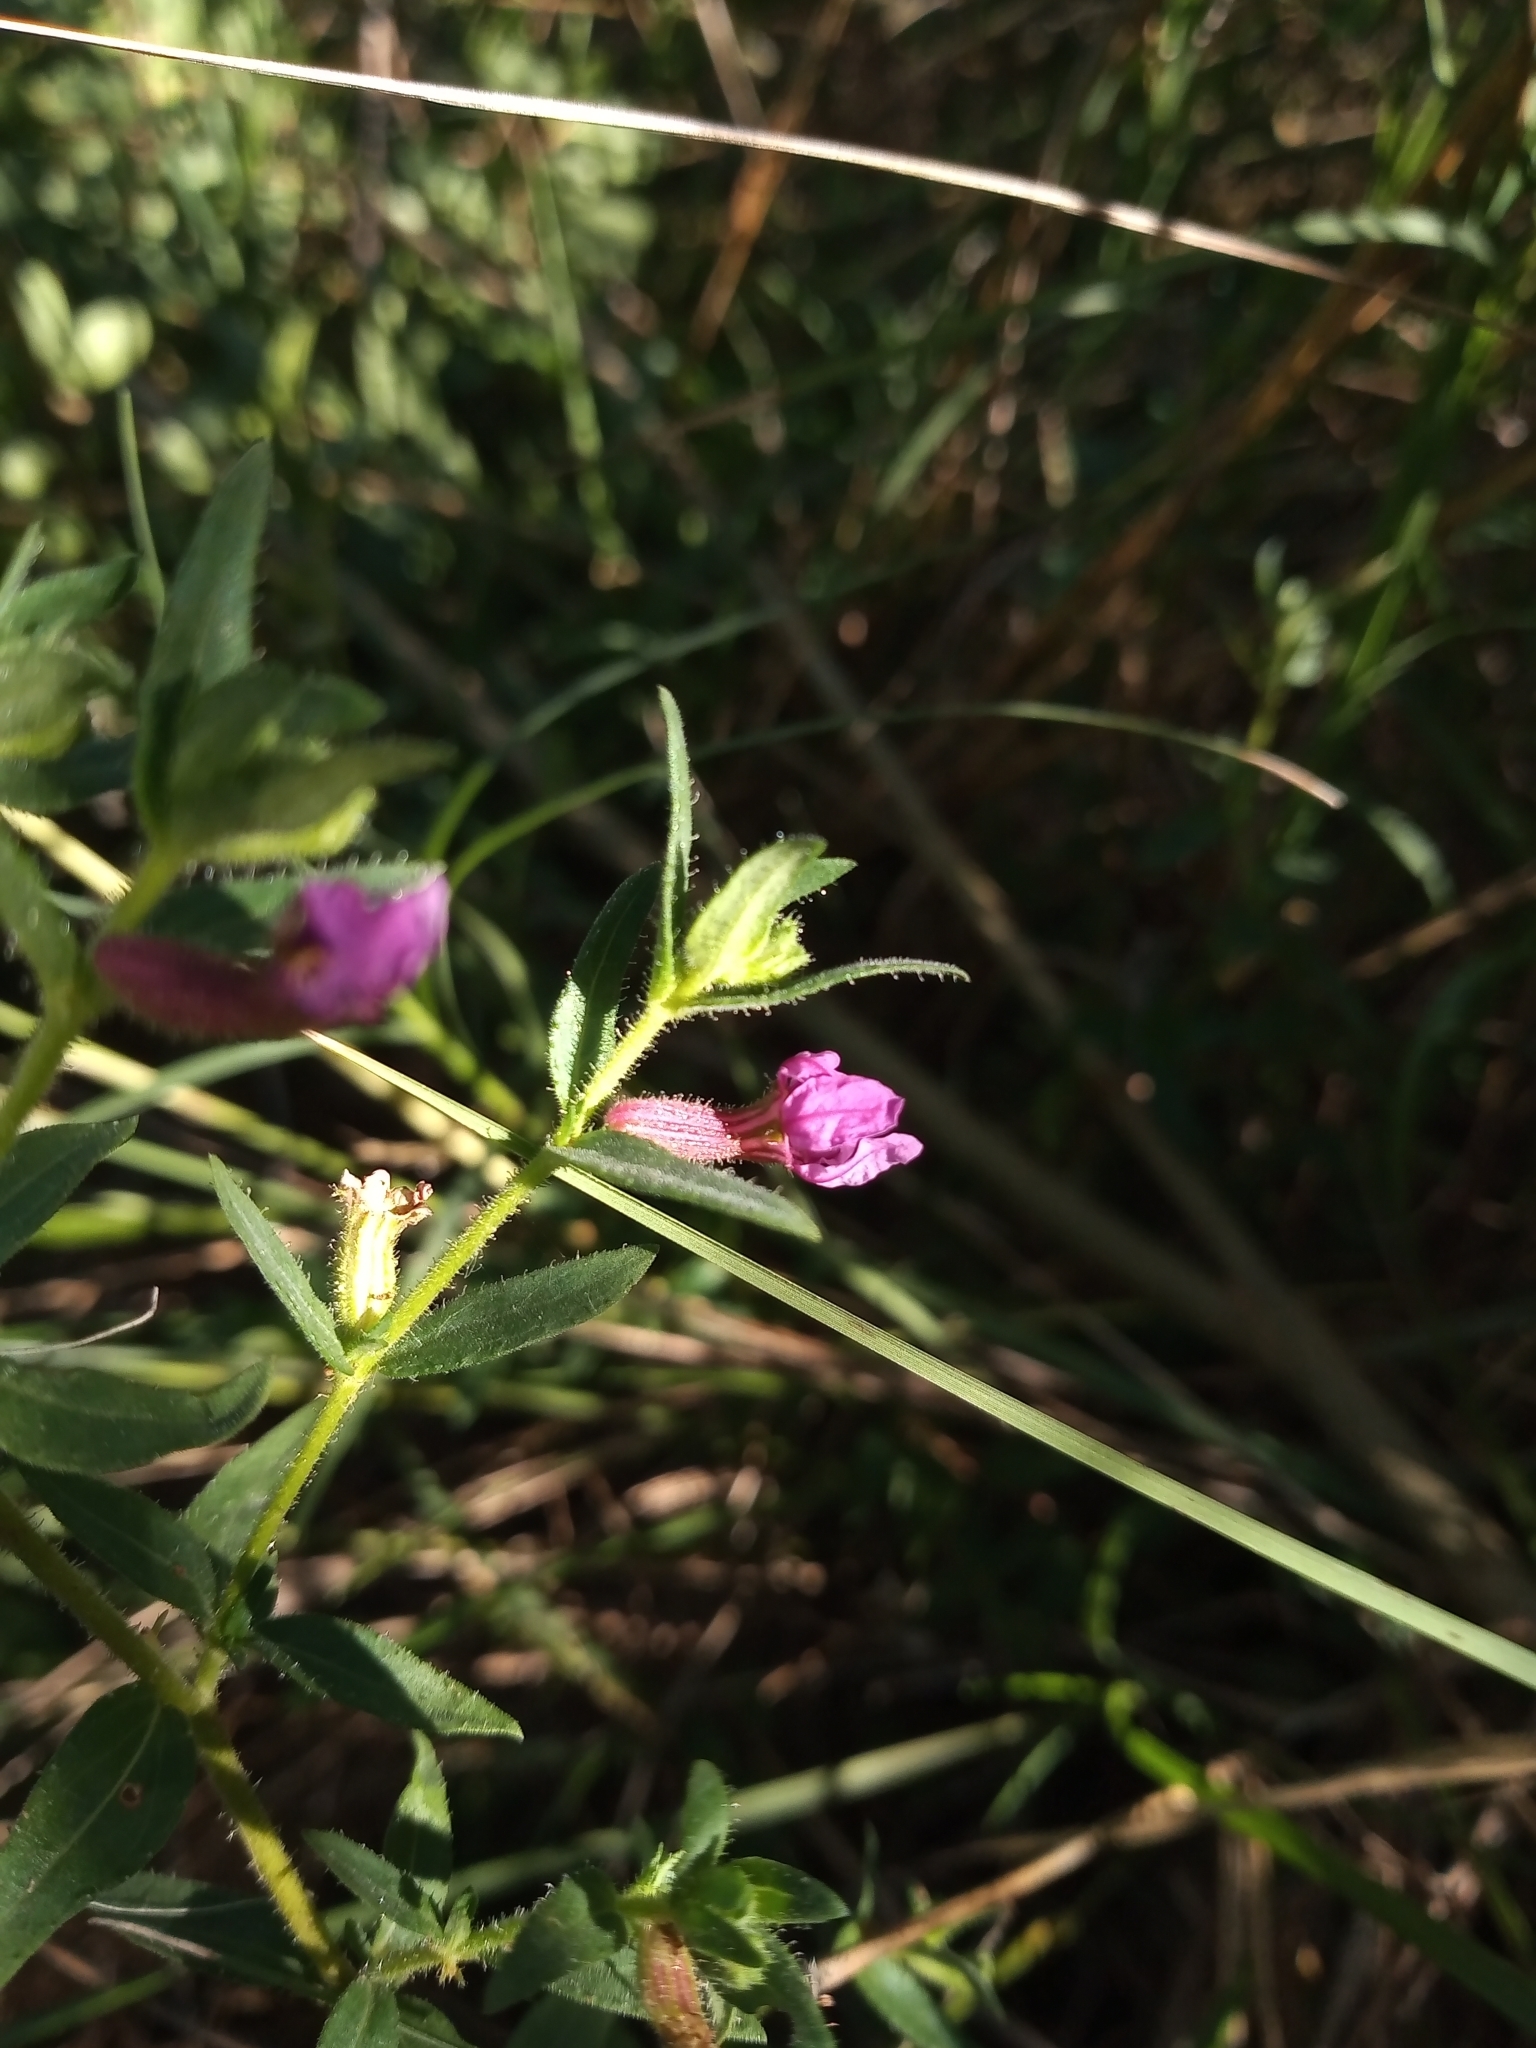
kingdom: Plantae
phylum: Tracheophyta
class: Magnoliopsida
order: Myrtales
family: Lythraceae
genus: Cuphea
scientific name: Cuphea glutinosa
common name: Sticky waxweed
